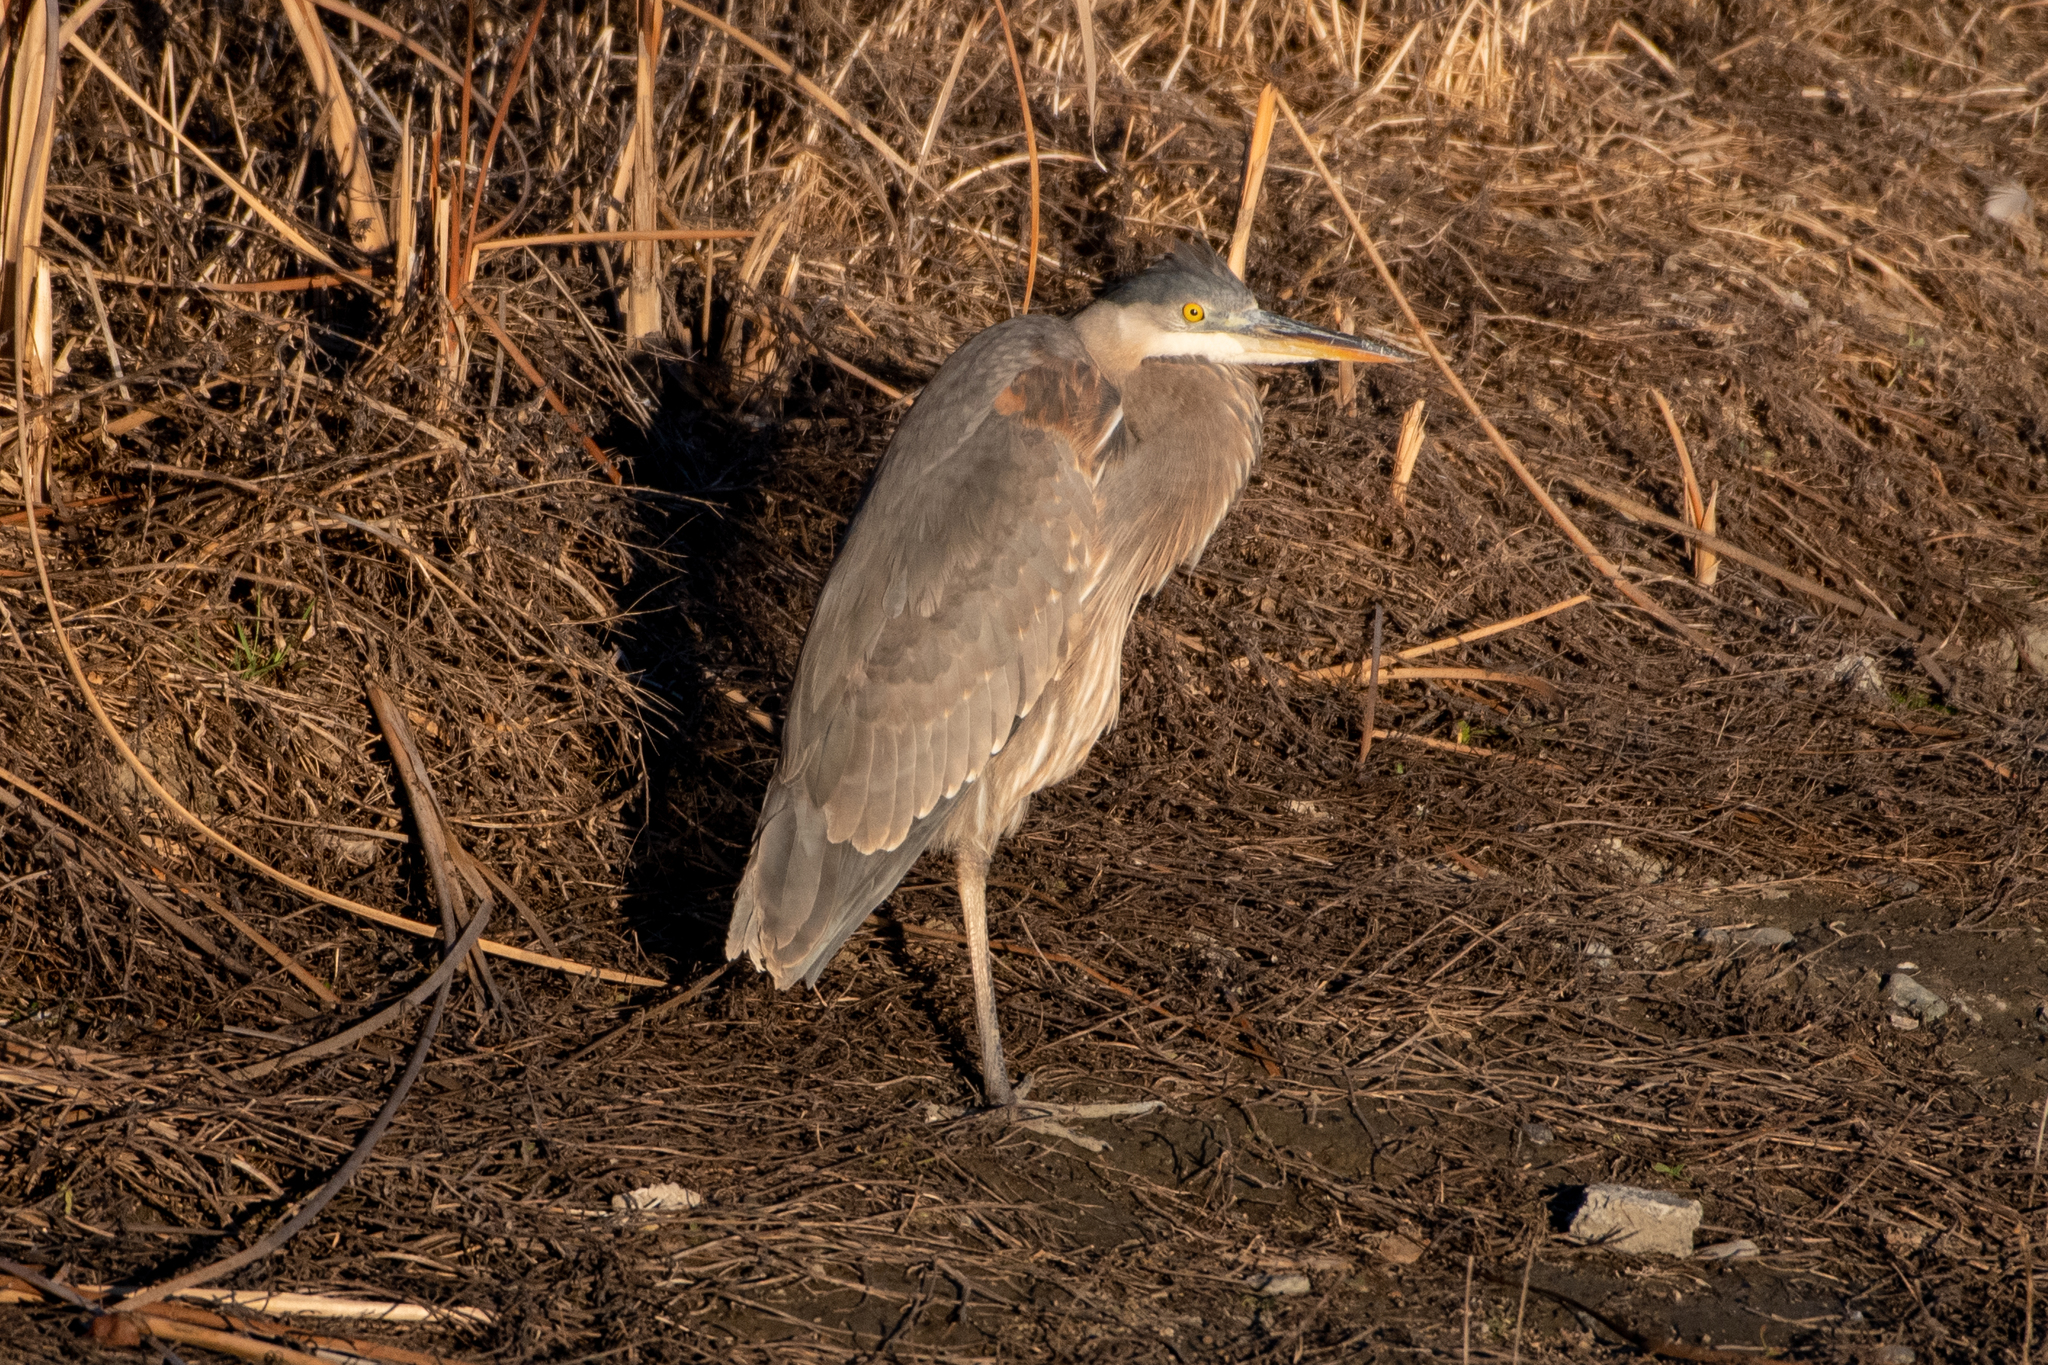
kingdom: Animalia
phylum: Chordata
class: Aves
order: Pelecaniformes
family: Ardeidae
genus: Ardea
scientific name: Ardea herodias
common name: Great blue heron
